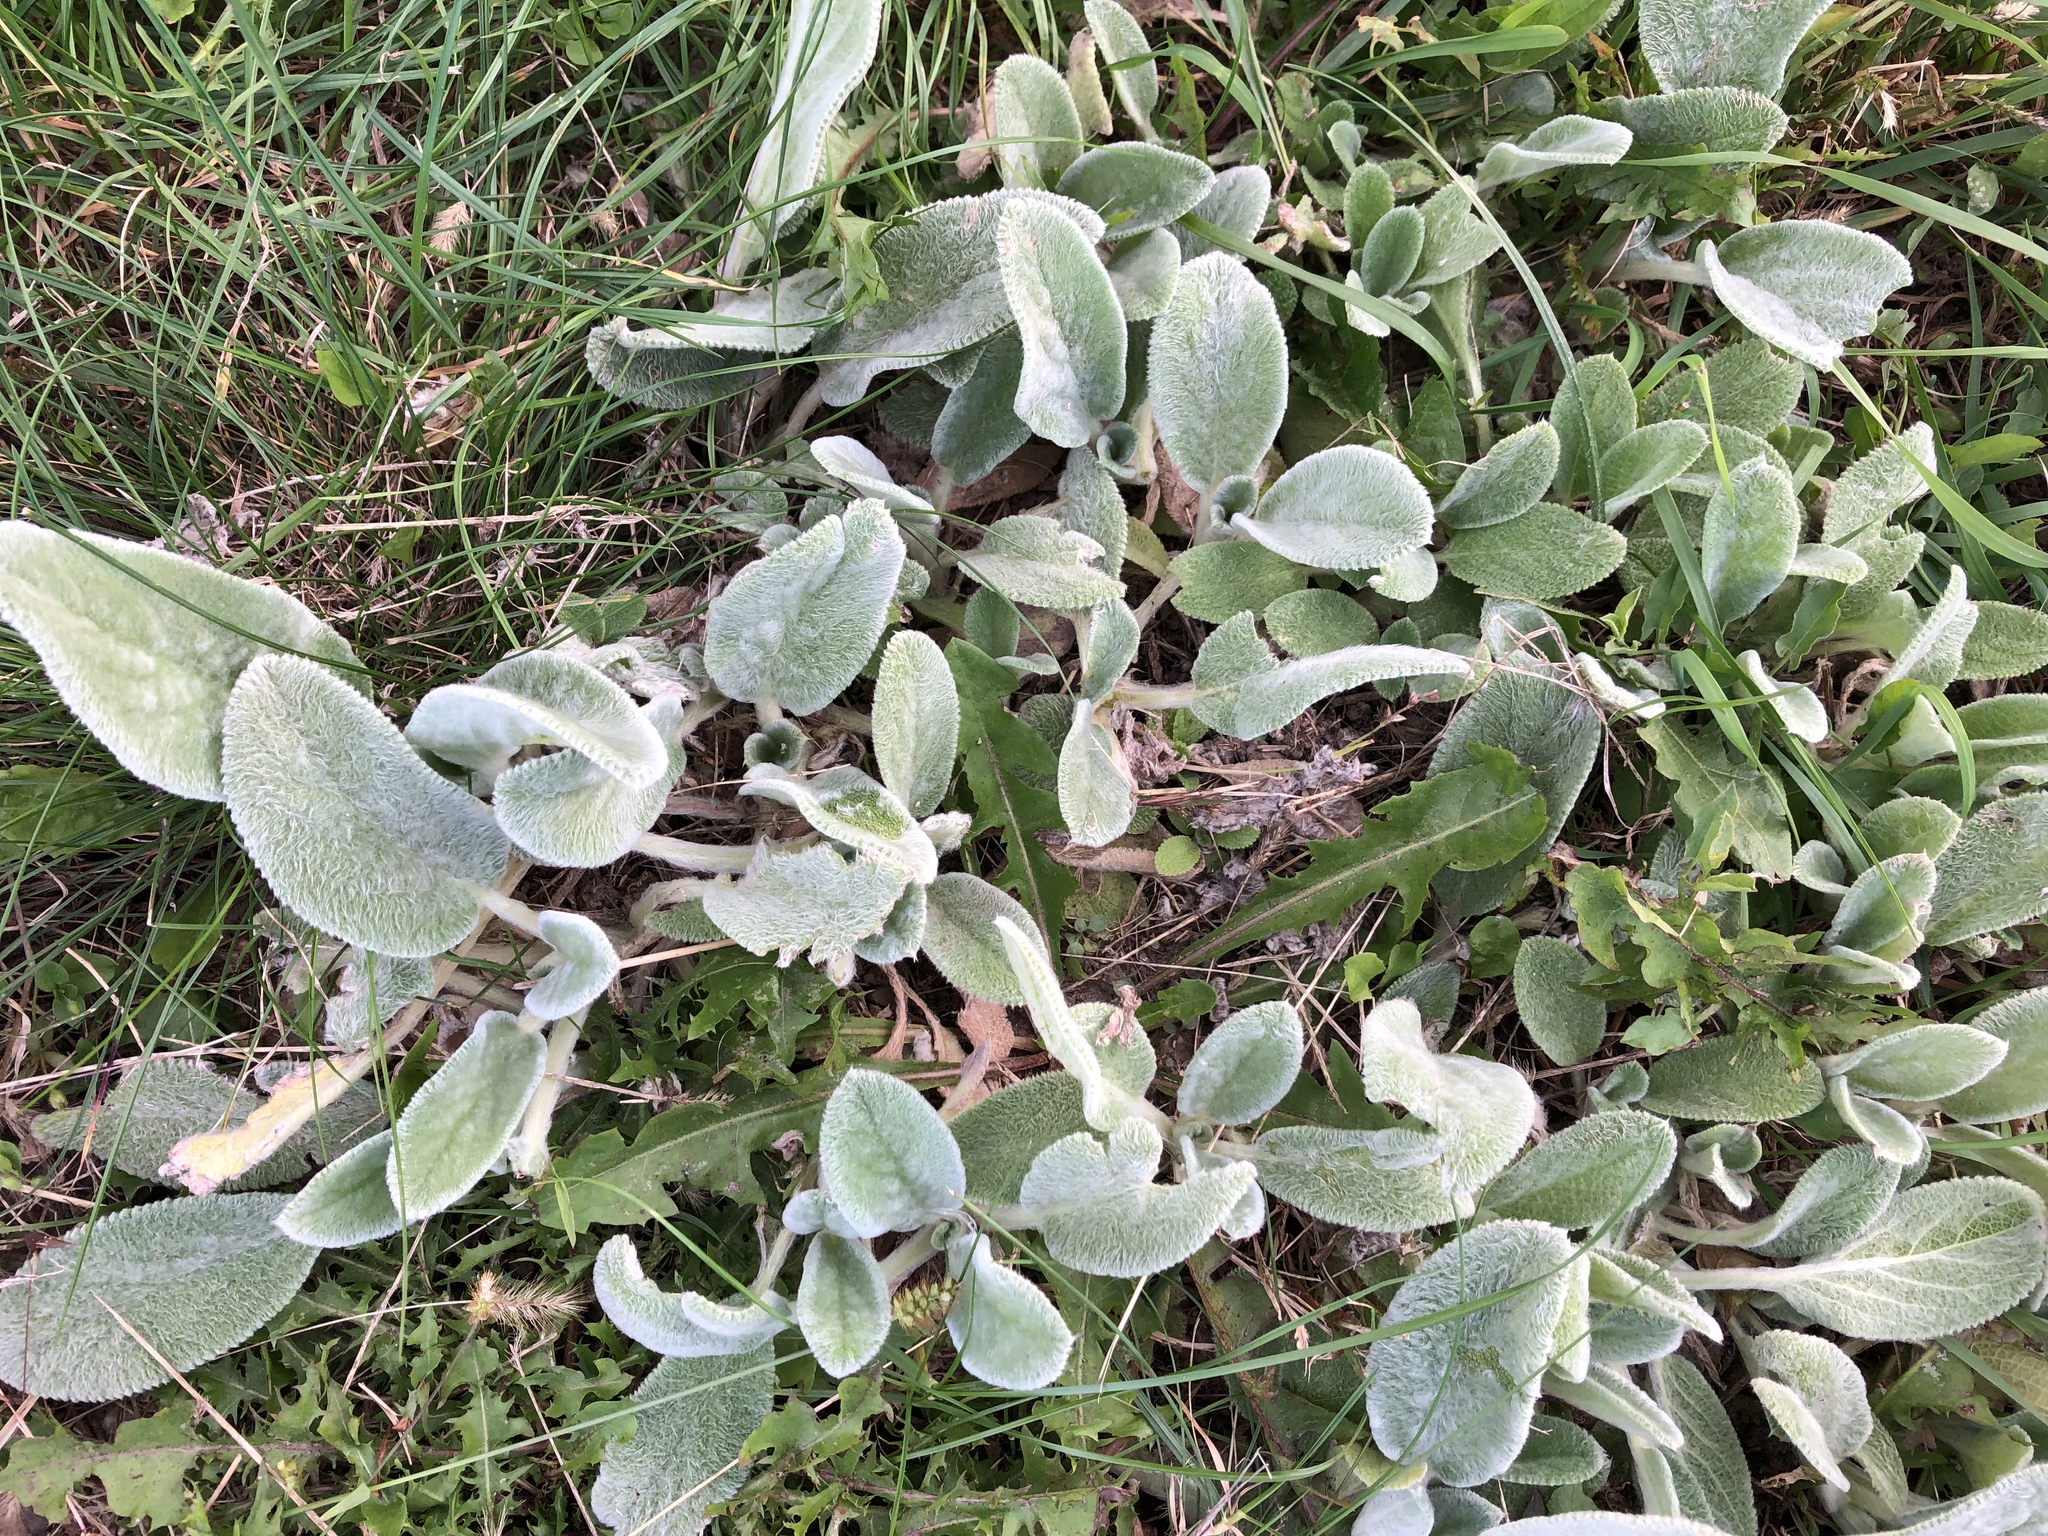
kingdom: Plantae
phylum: Tracheophyta
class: Magnoliopsida
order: Lamiales
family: Lamiaceae
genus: Stachys
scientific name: Stachys byzantina
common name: Lamb's-ear
